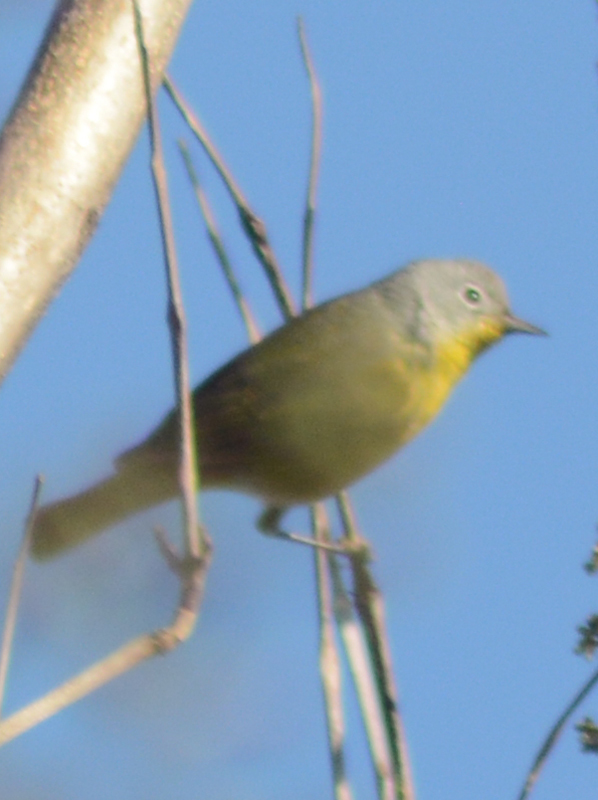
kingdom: Animalia
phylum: Chordata
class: Aves
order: Passeriformes
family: Parulidae
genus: Leiothlypis
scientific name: Leiothlypis ruficapilla
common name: Nashville warbler
